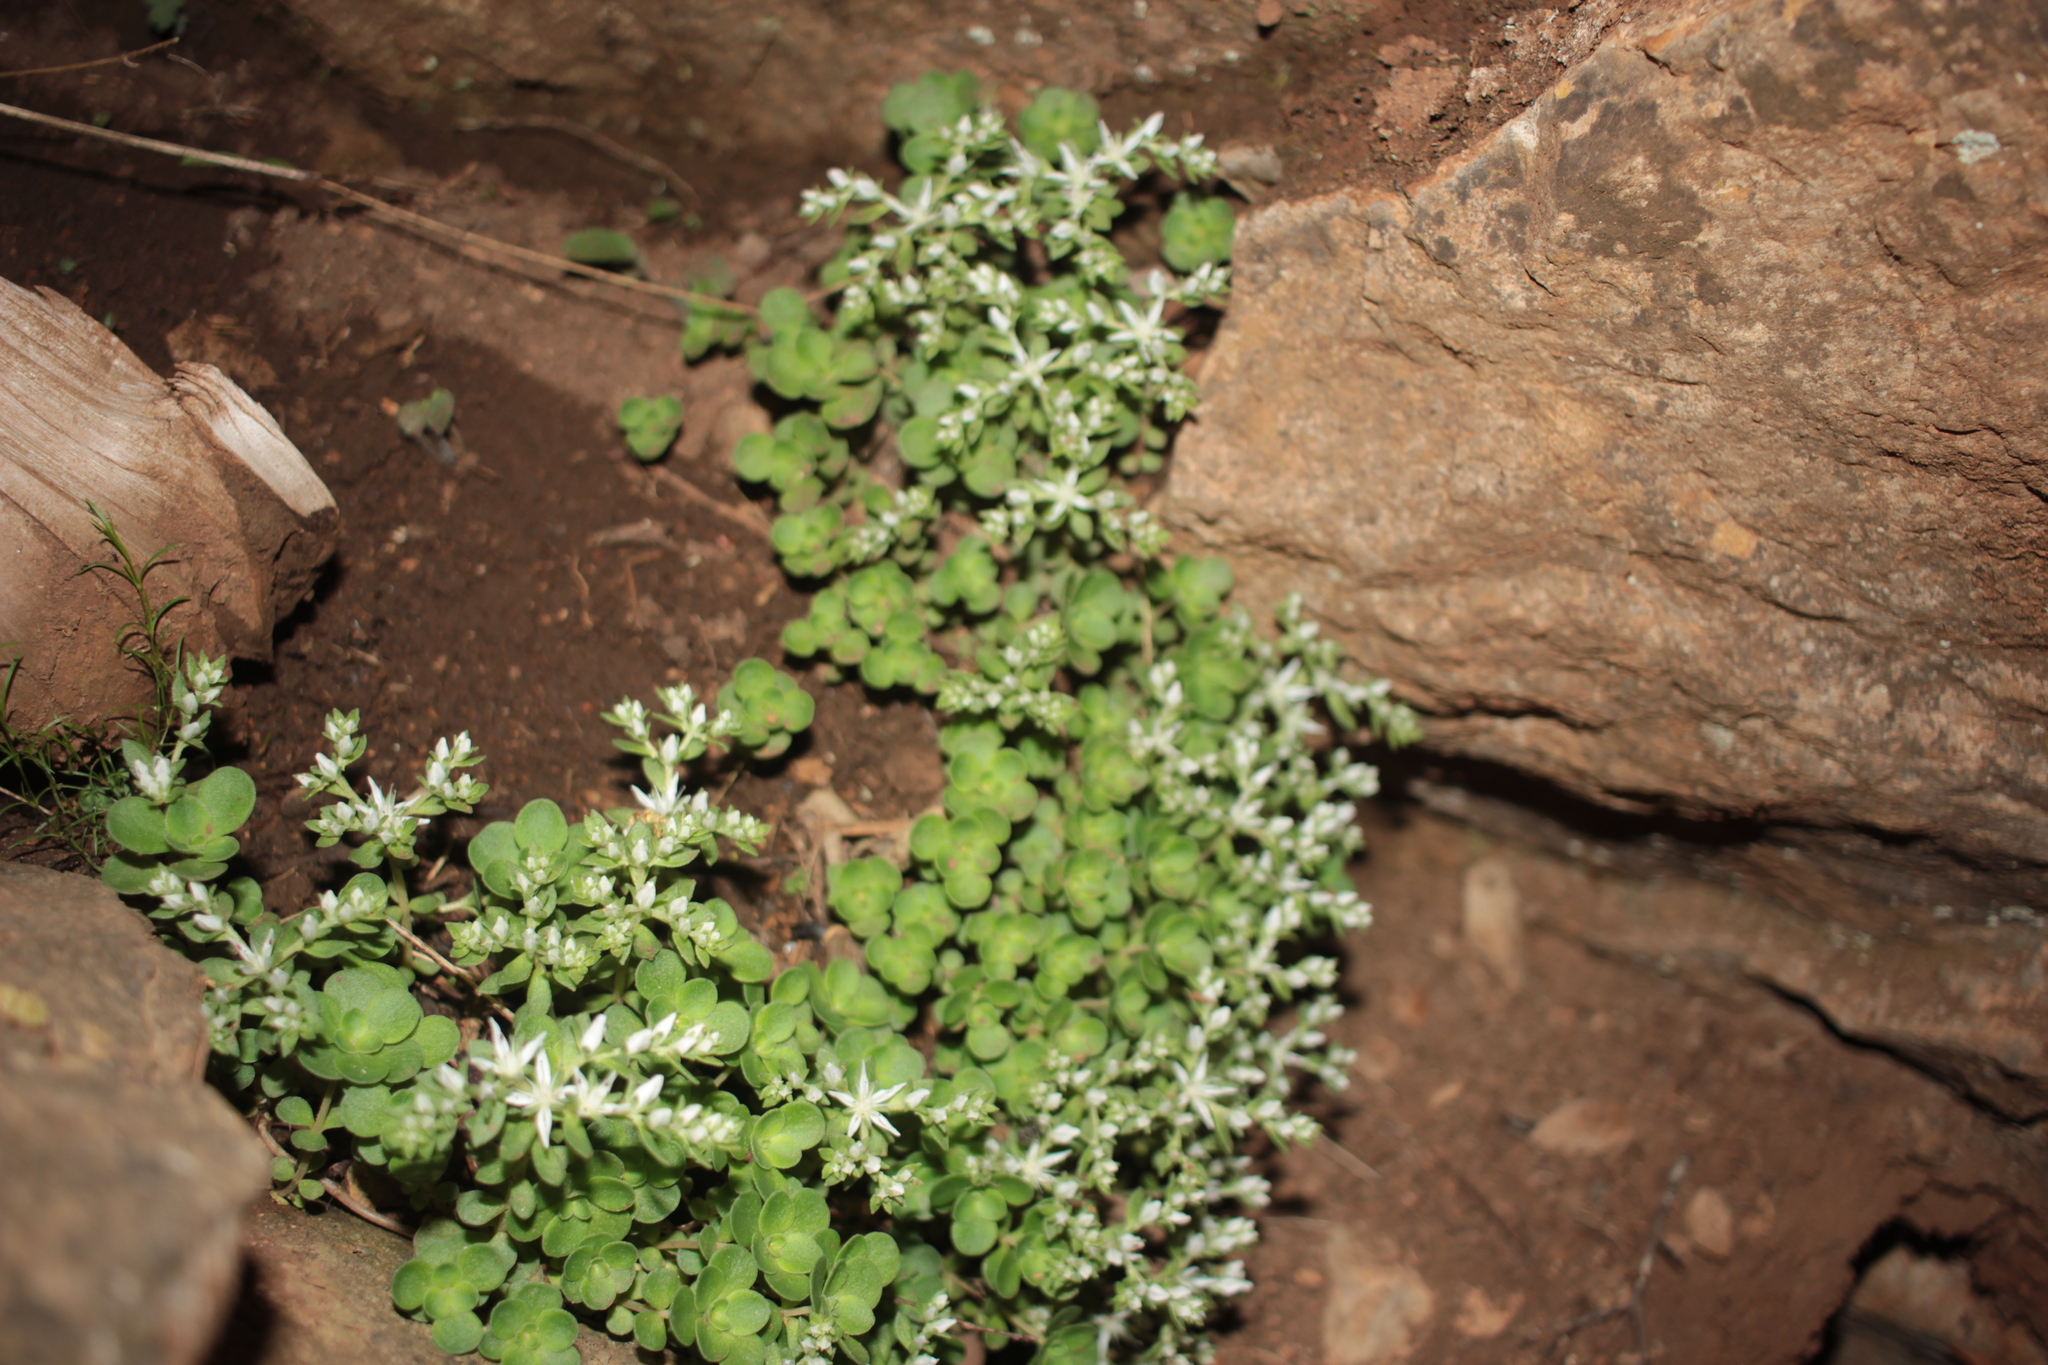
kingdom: Plantae
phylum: Tracheophyta
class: Magnoliopsida
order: Saxifragales
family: Crassulaceae
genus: Sedum
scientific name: Sedum ternatum
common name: Wild stonecrop
